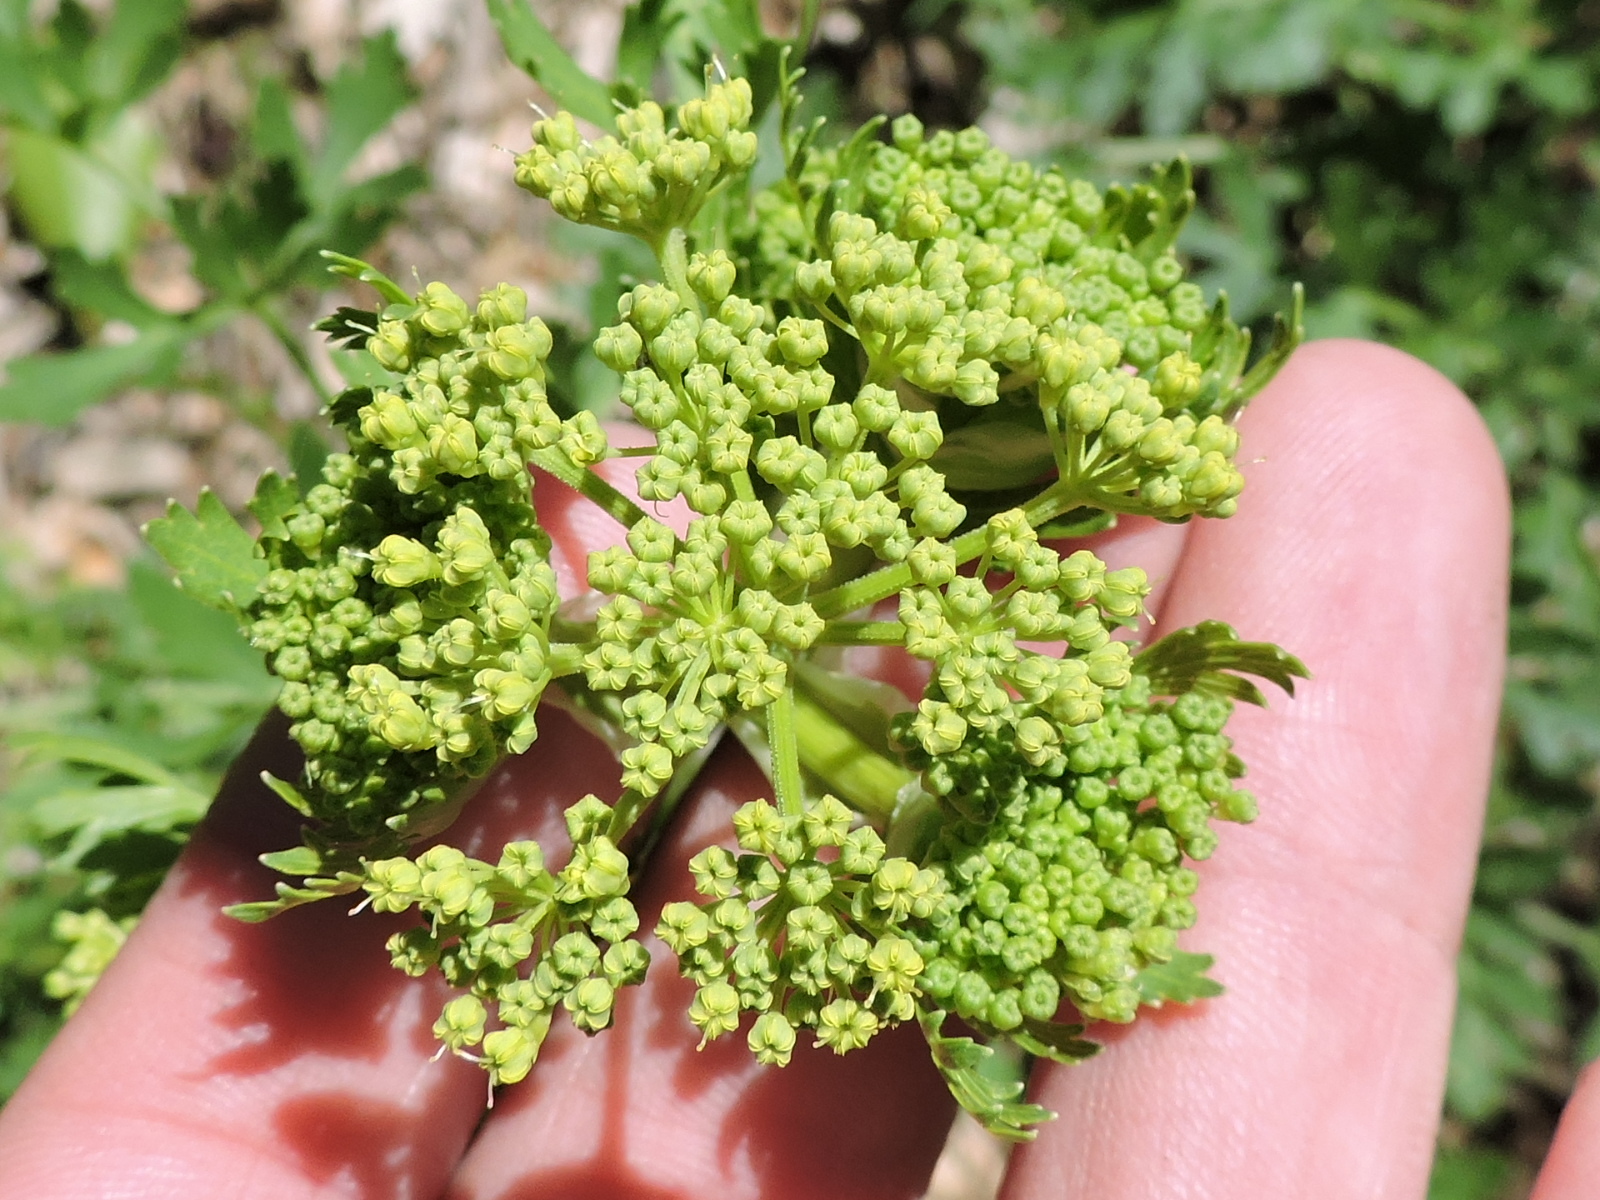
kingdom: Plantae
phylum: Tracheophyta
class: Magnoliopsida
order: Apiales
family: Apiaceae
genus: Polytaenia
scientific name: Polytaenia texana
